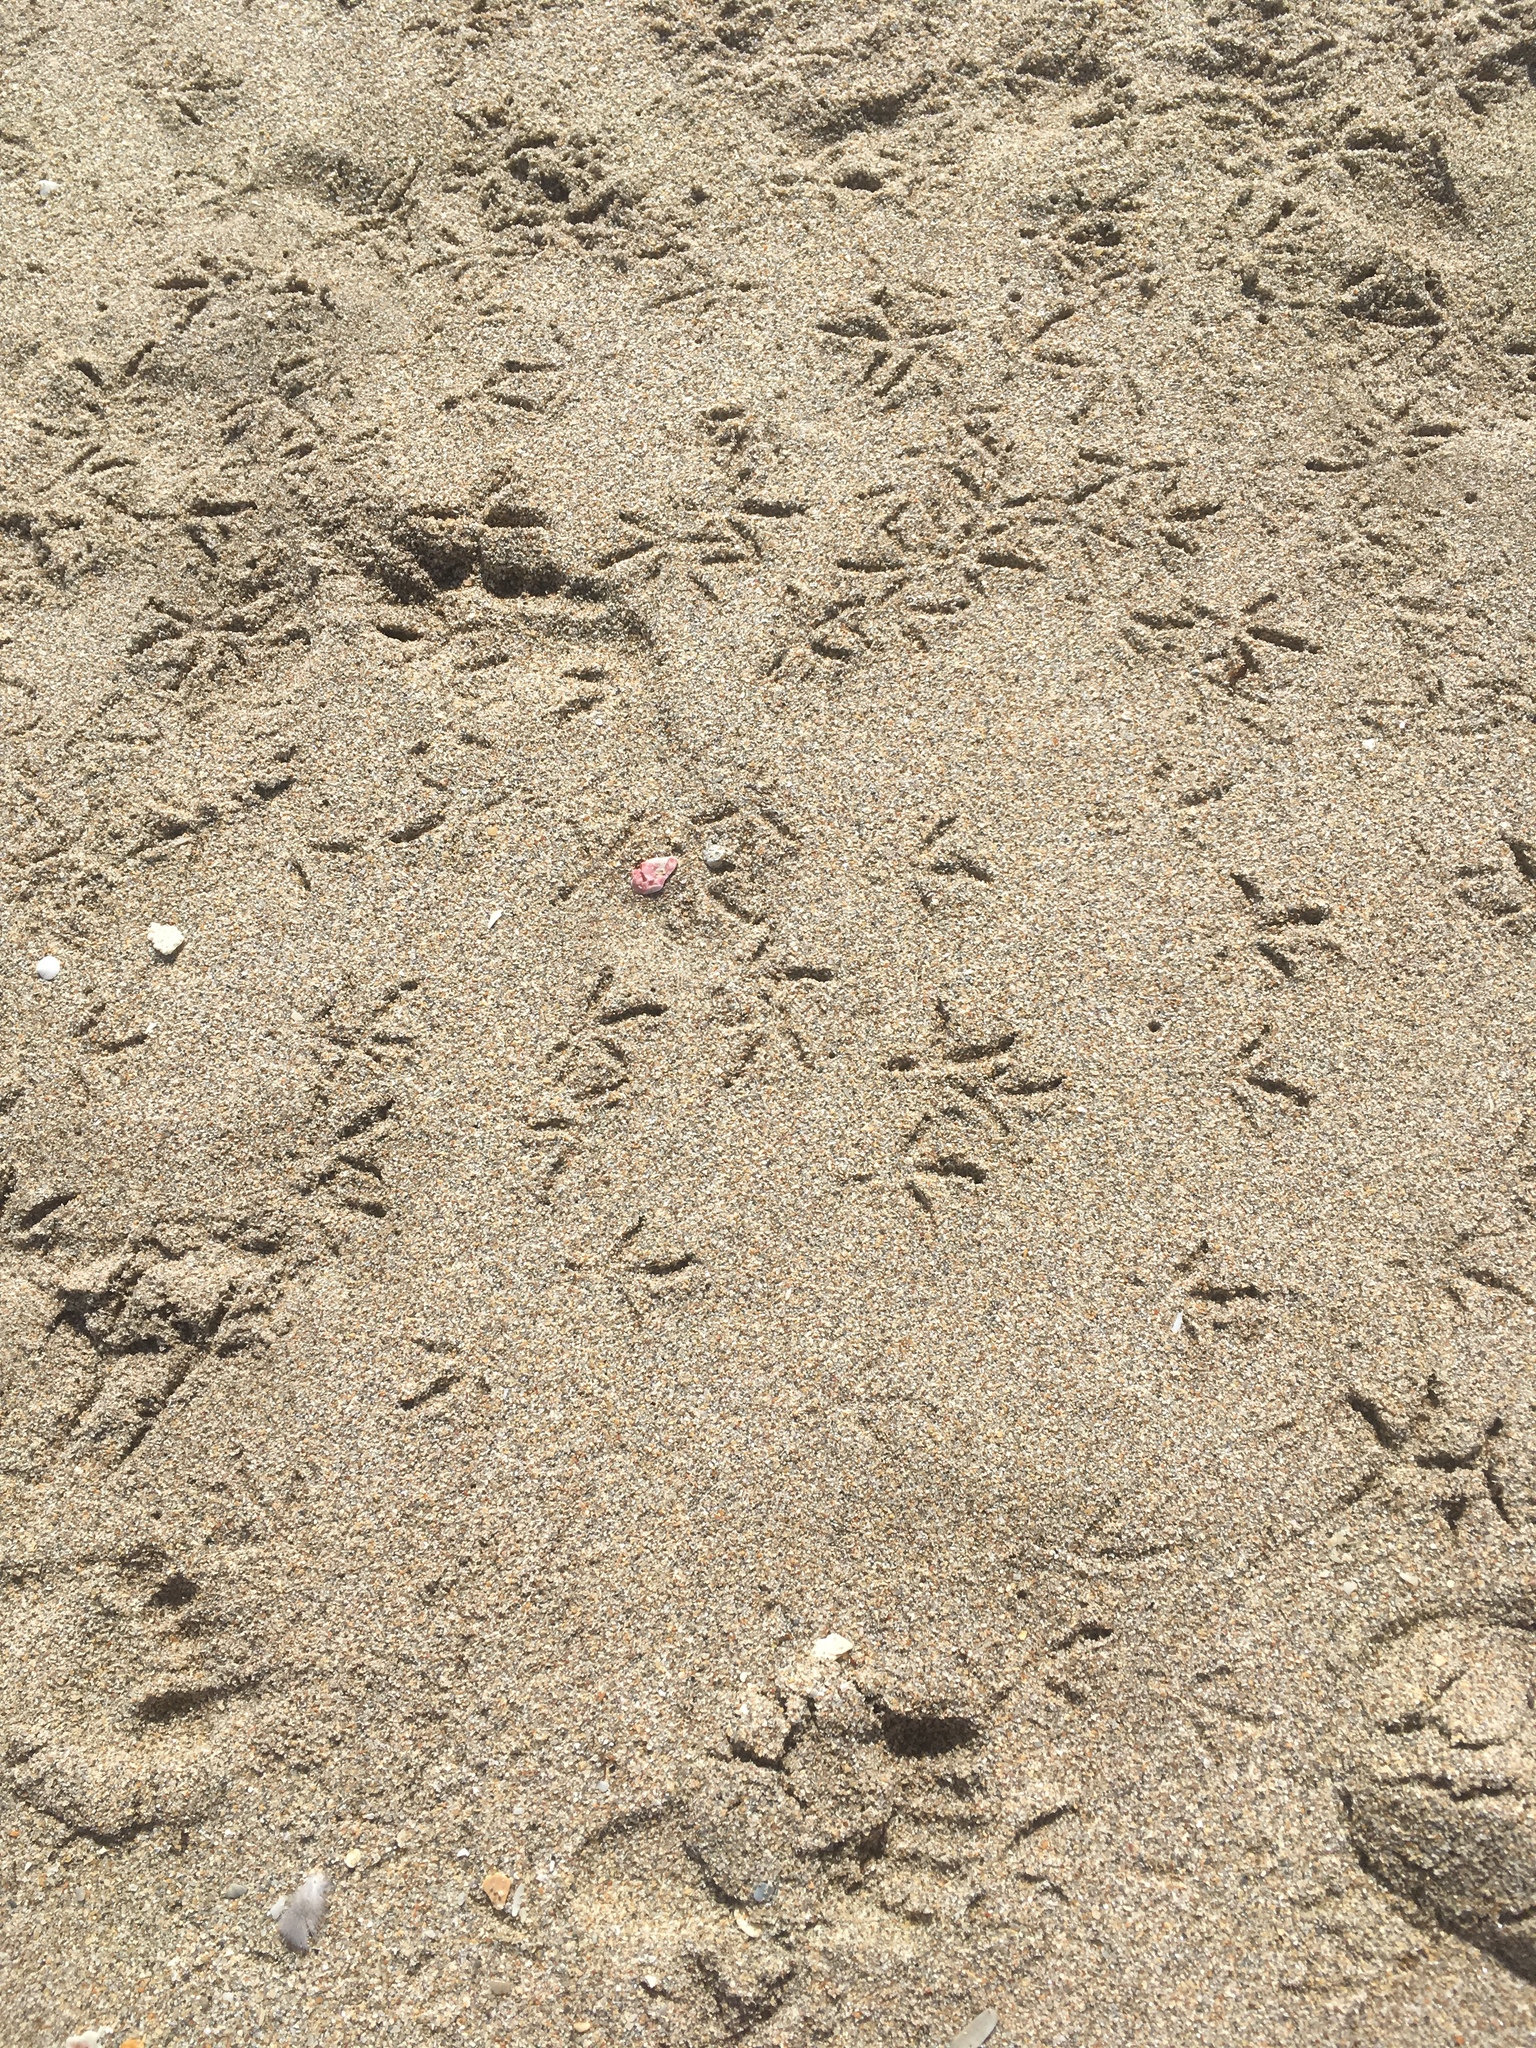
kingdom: Animalia
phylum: Chordata
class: Aves
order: Columbiformes
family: Columbidae
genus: Columba
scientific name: Columba livia
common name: Rock pigeon
